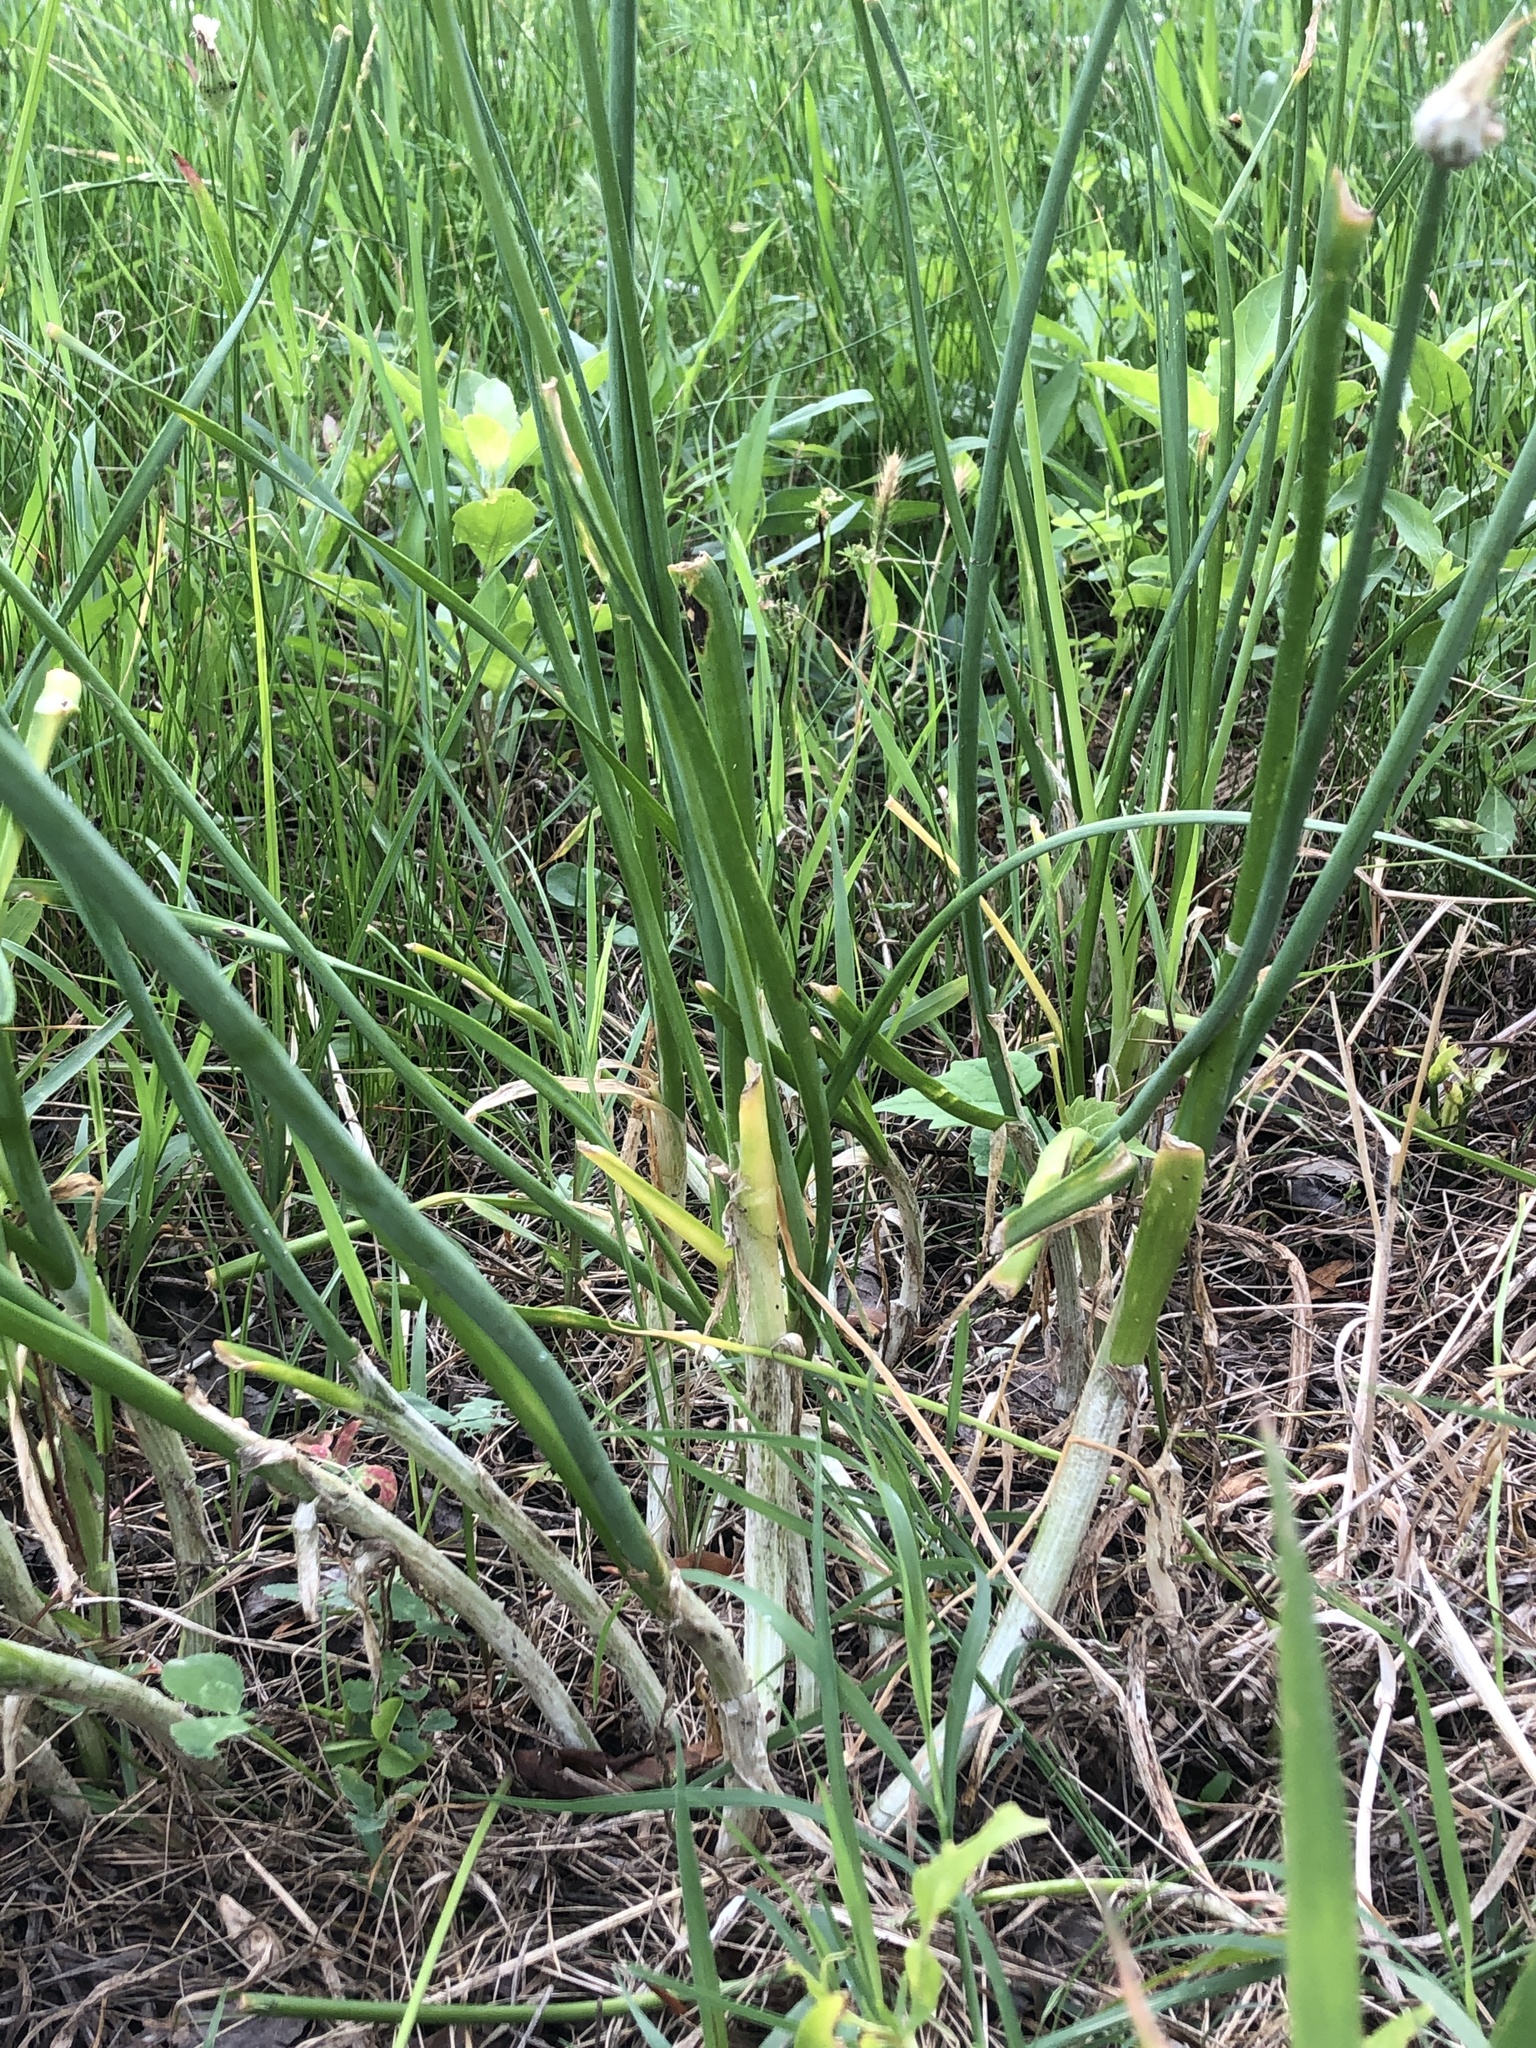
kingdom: Plantae
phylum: Tracheophyta
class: Liliopsida
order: Asparagales
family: Amaryllidaceae
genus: Allium
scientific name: Allium canadense
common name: Meadow garlic
